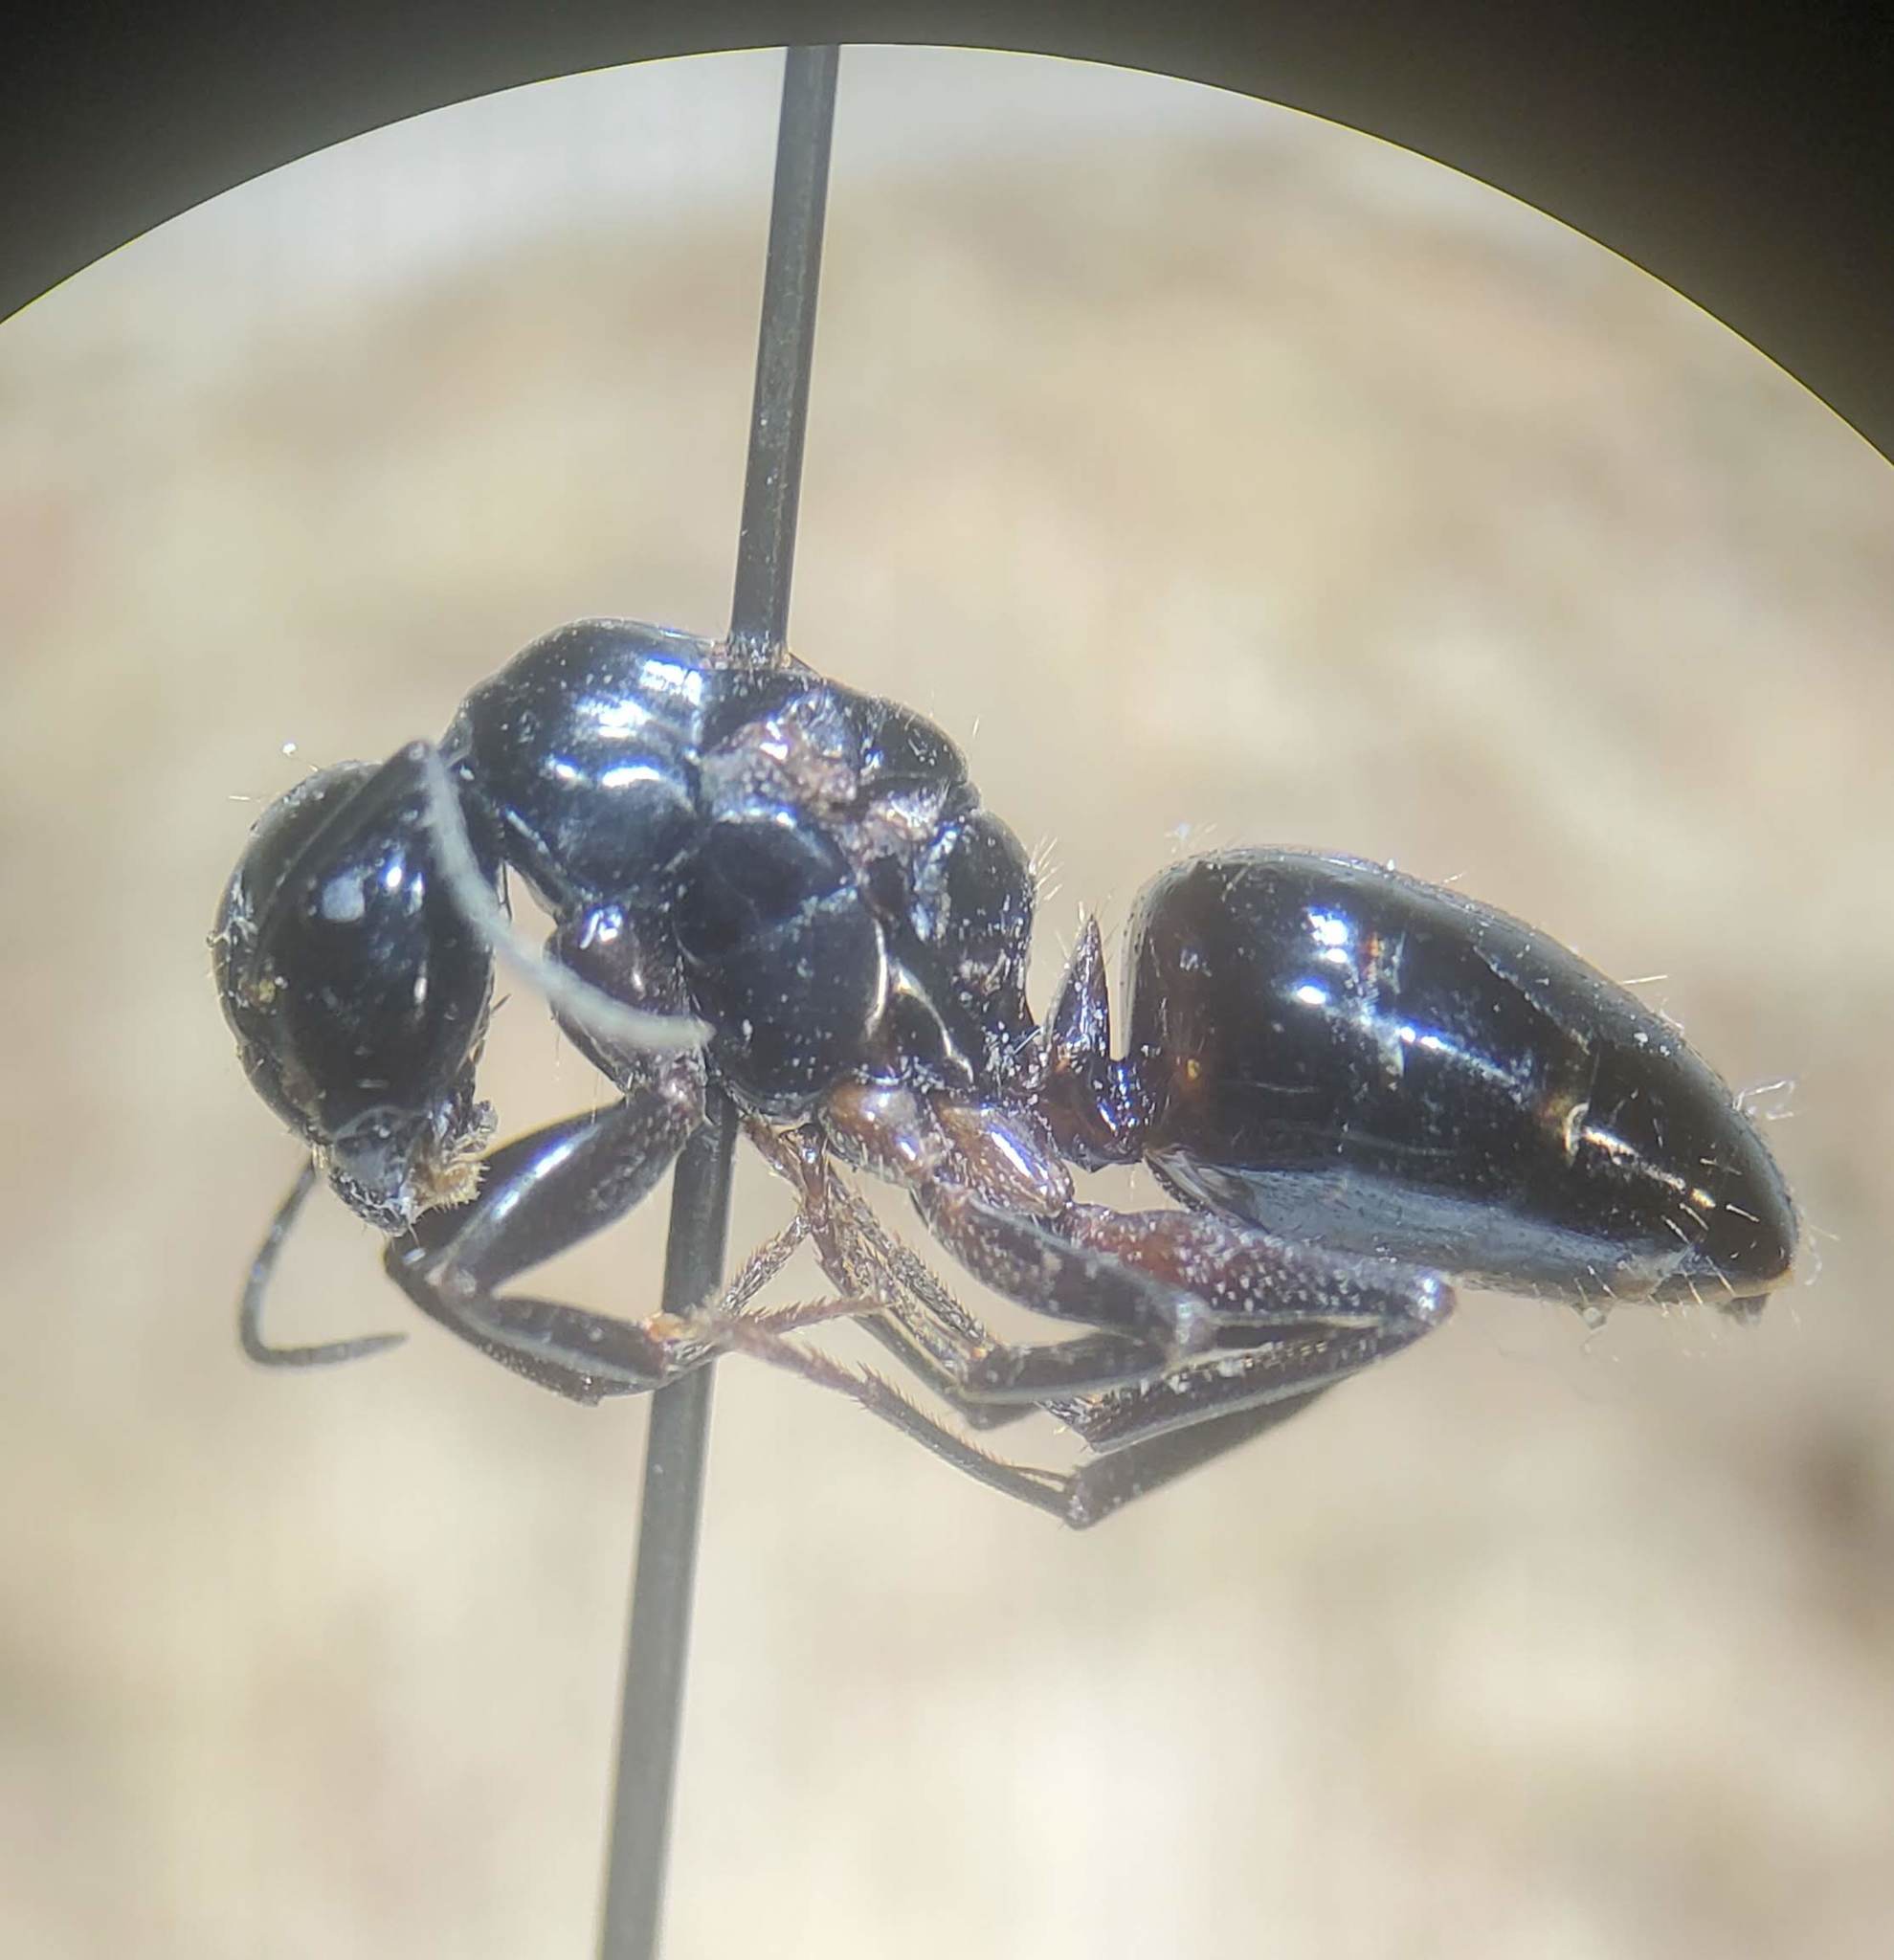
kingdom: Animalia
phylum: Arthropoda
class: Insecta
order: Hymenoptera
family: Formicidae
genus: Camponotus
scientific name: Camponotus nearcticus
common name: Smaller carpenter ant
